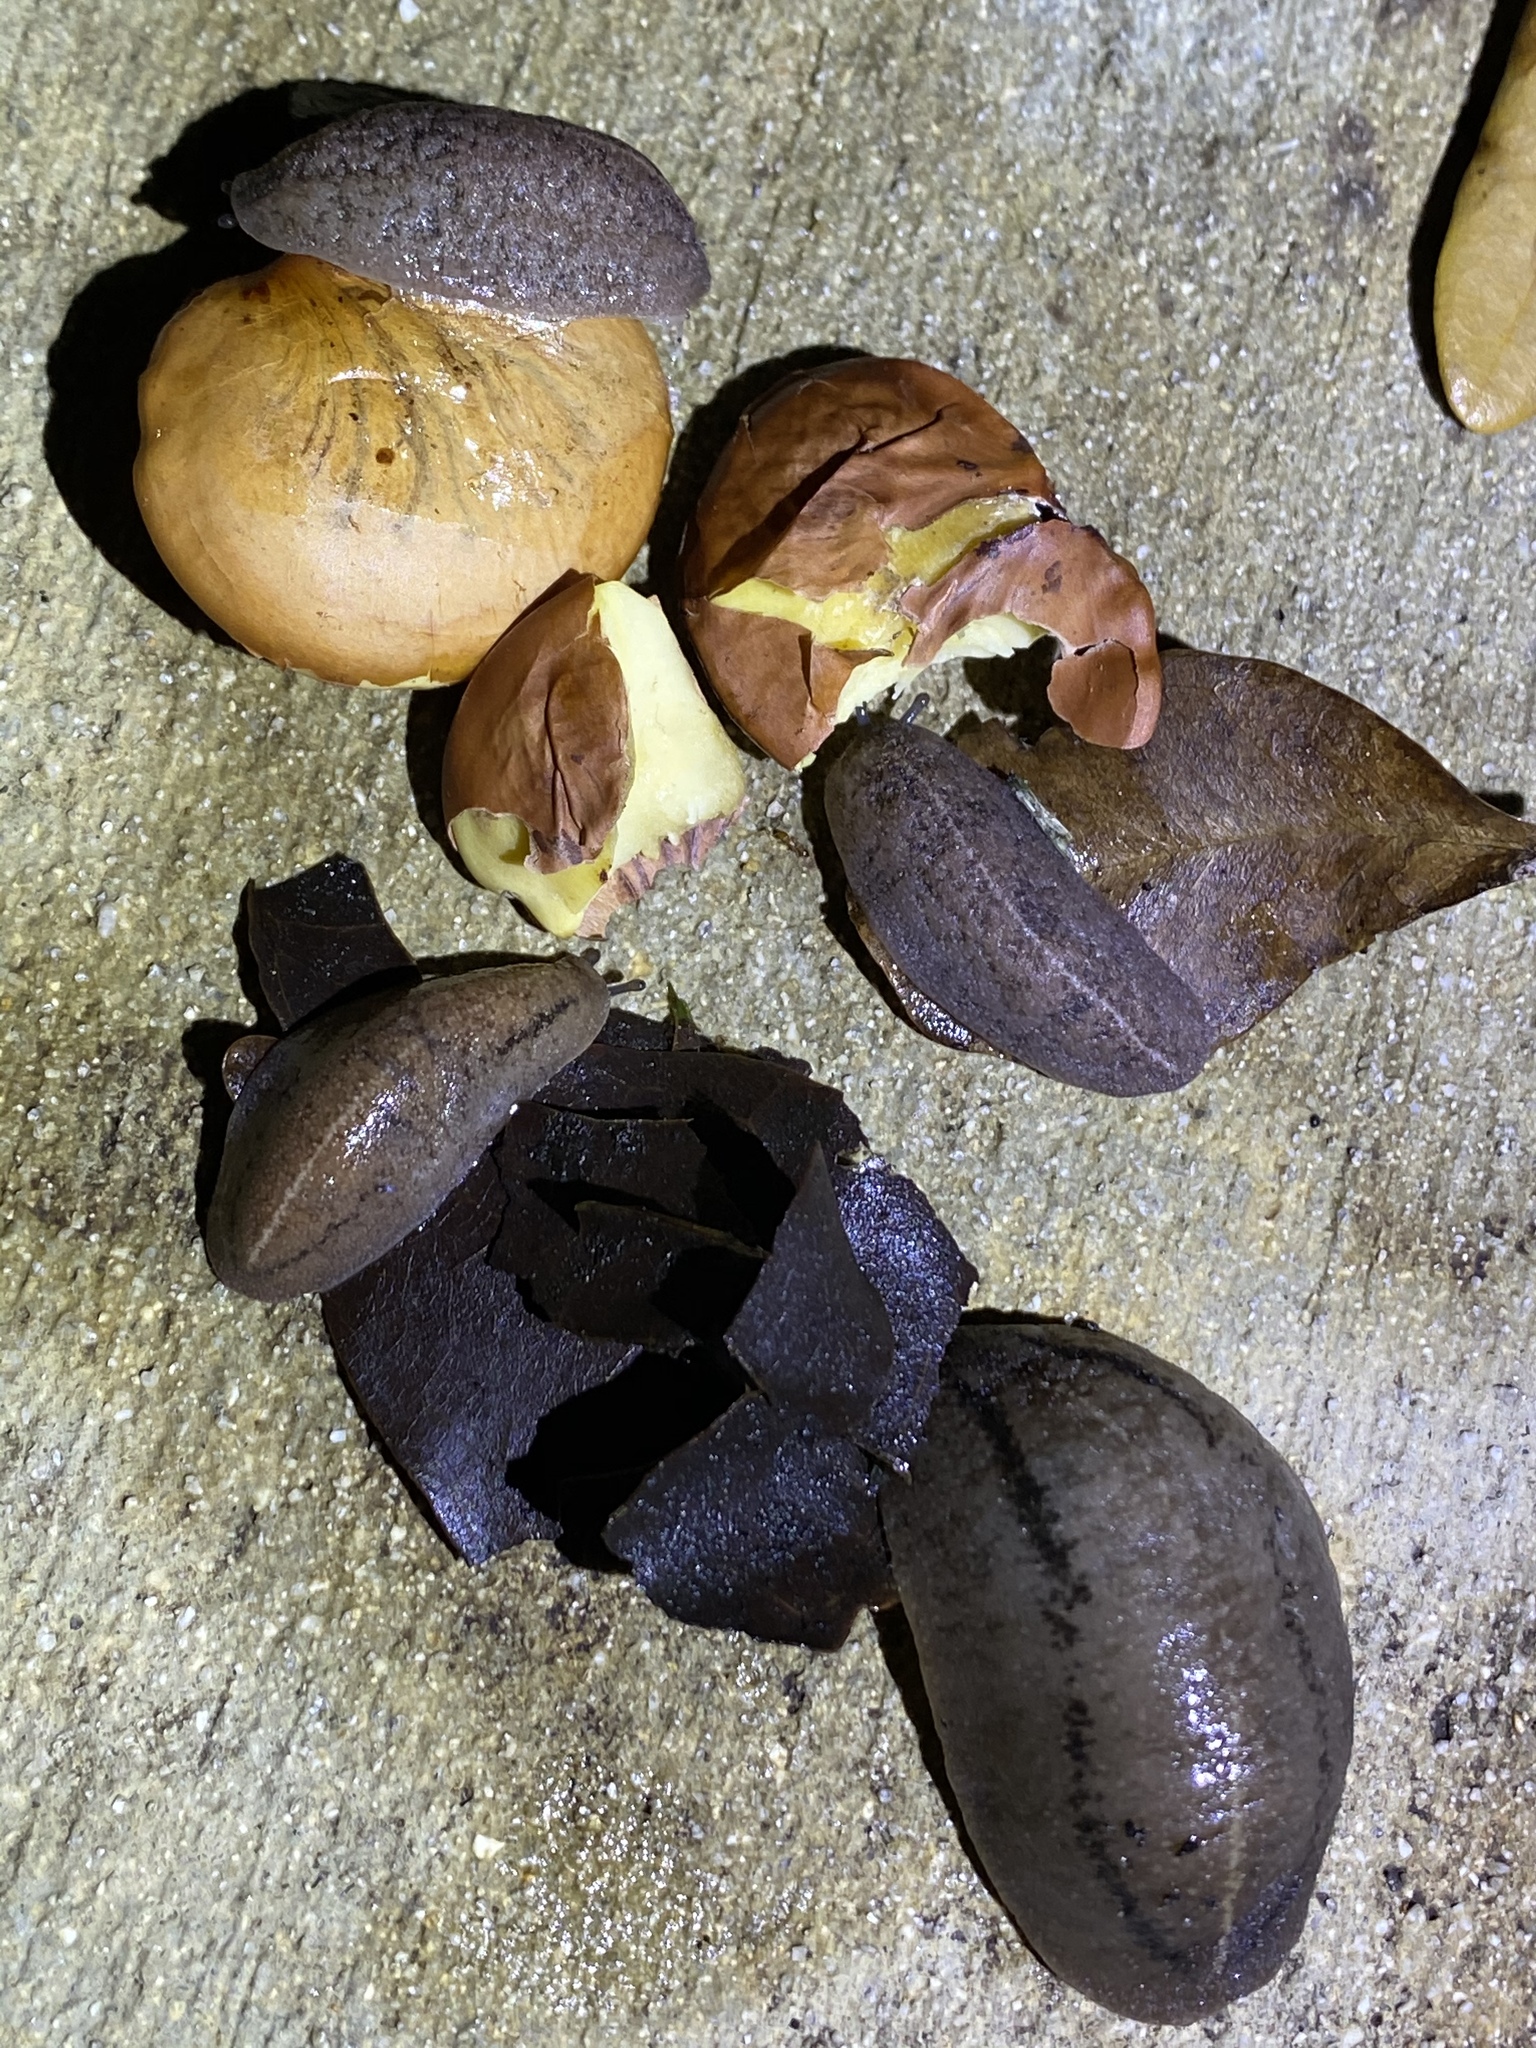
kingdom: Animalia
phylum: Mollusca
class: Gastropoda
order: Systellommatophora
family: Veronicellidae
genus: Leidyula
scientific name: Leidyula floridana
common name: Florida leatherleaf
